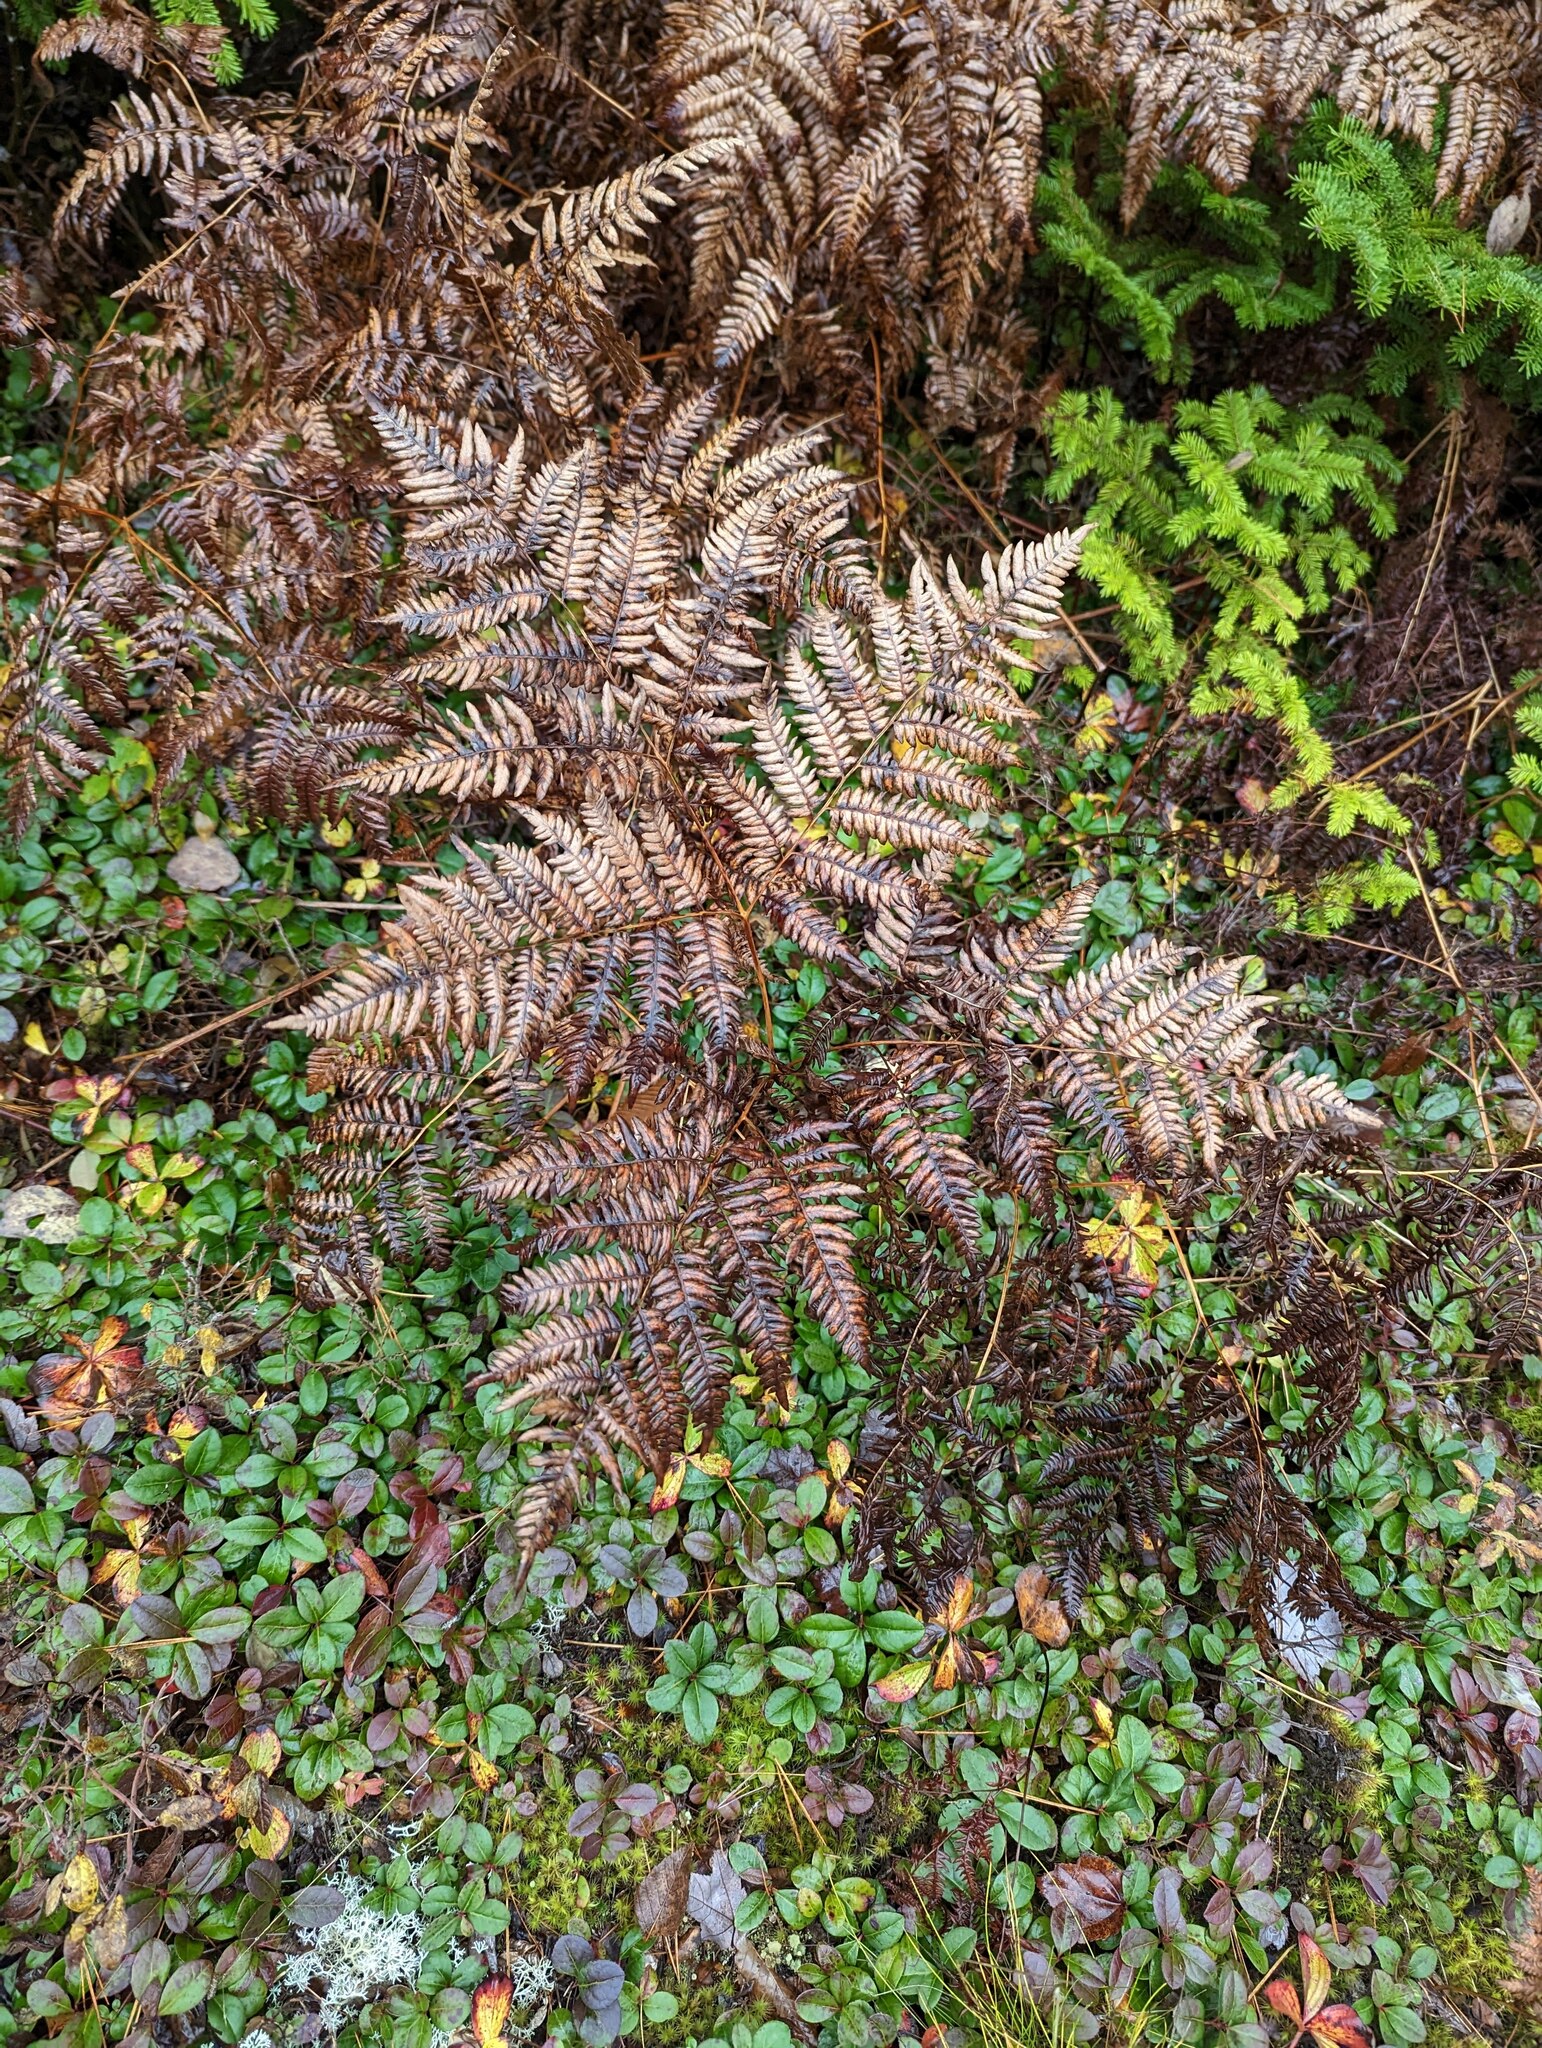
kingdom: Plantae
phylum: Tracheophyta
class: Polypodiopsida
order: Polypodiales
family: Dennstaedtiaceae
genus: Pteridium
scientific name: Pteridium aquilinum
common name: Bracken
